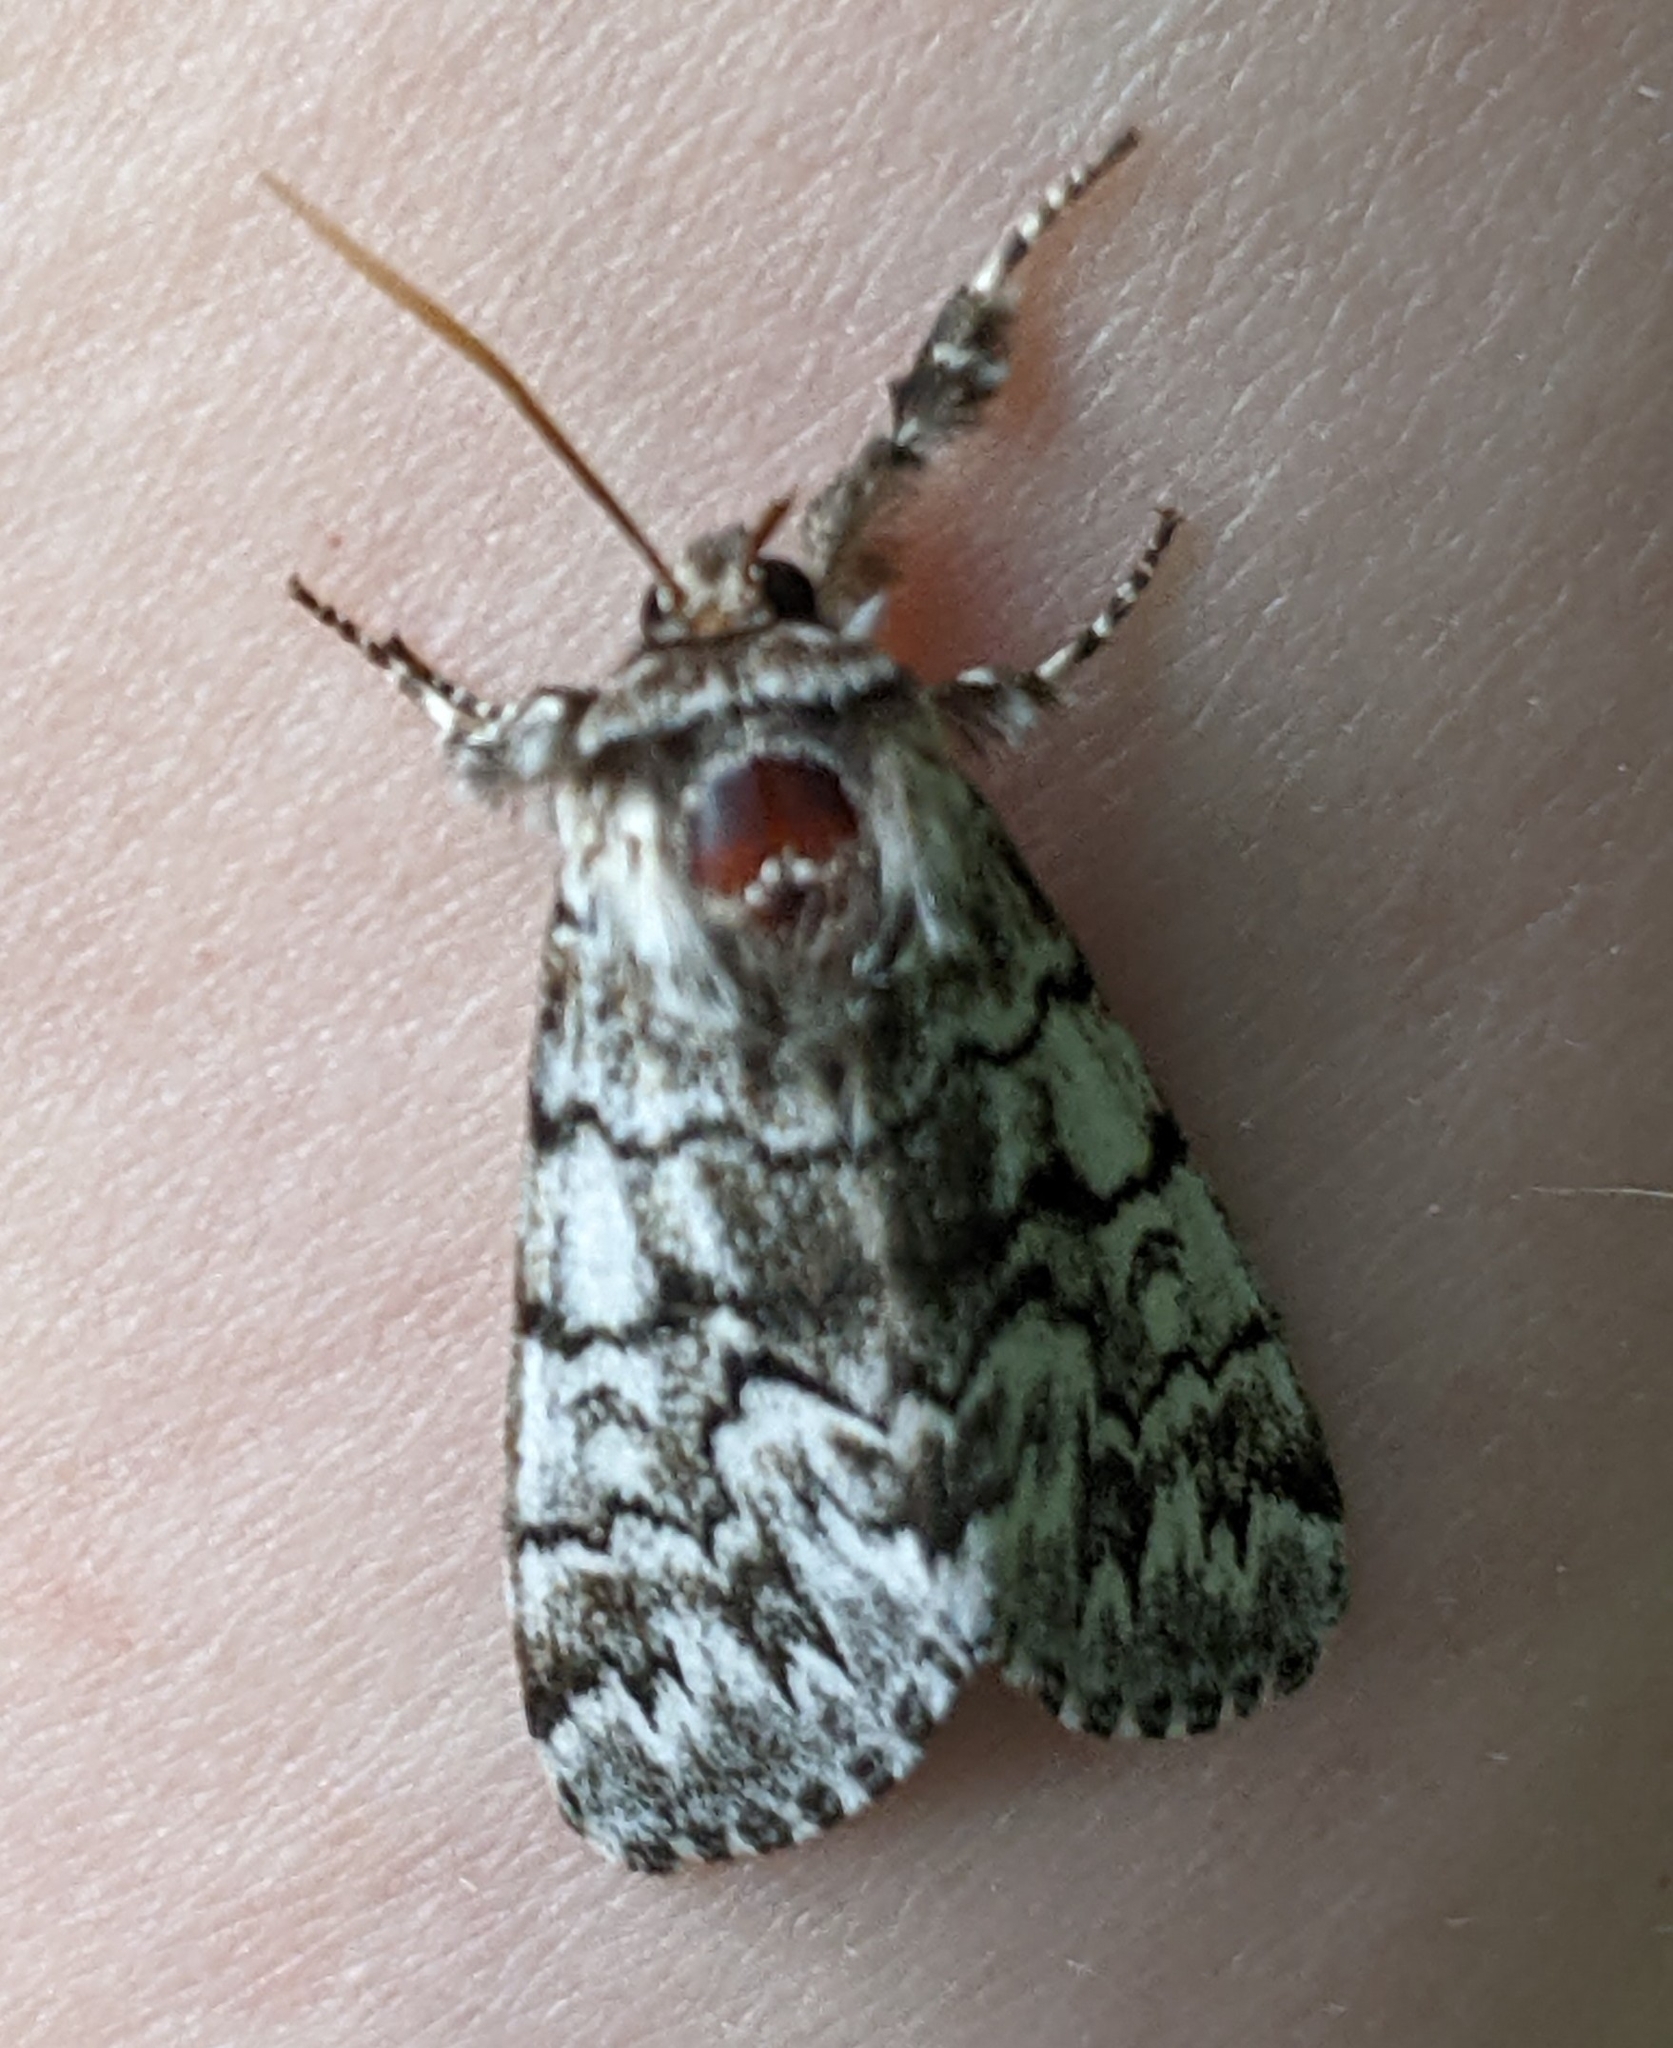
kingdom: Animalia
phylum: Arthropoda
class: Insecta
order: Lepidoptera
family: Noctuidae
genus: Panthea
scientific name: Panthea virginarius
